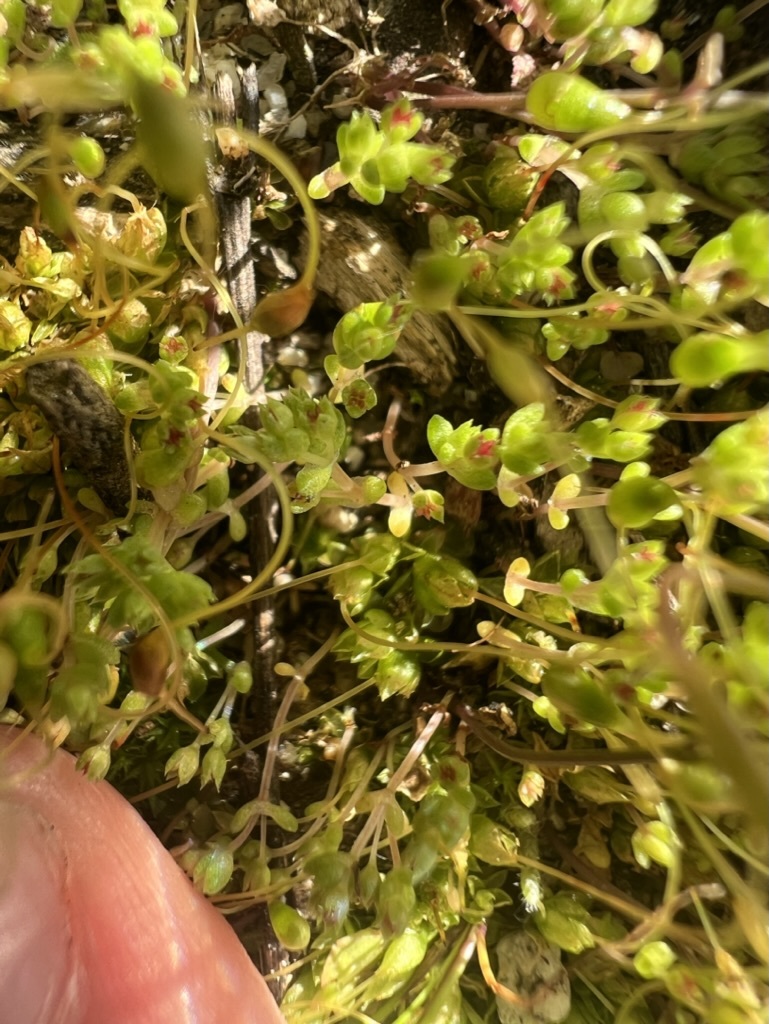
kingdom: Plantae
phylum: Tracheophyta
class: Magnoliopsida
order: Saxifragales
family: Crassulaceae
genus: Crassula
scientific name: Crassula connata
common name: Erect pygmyweed
